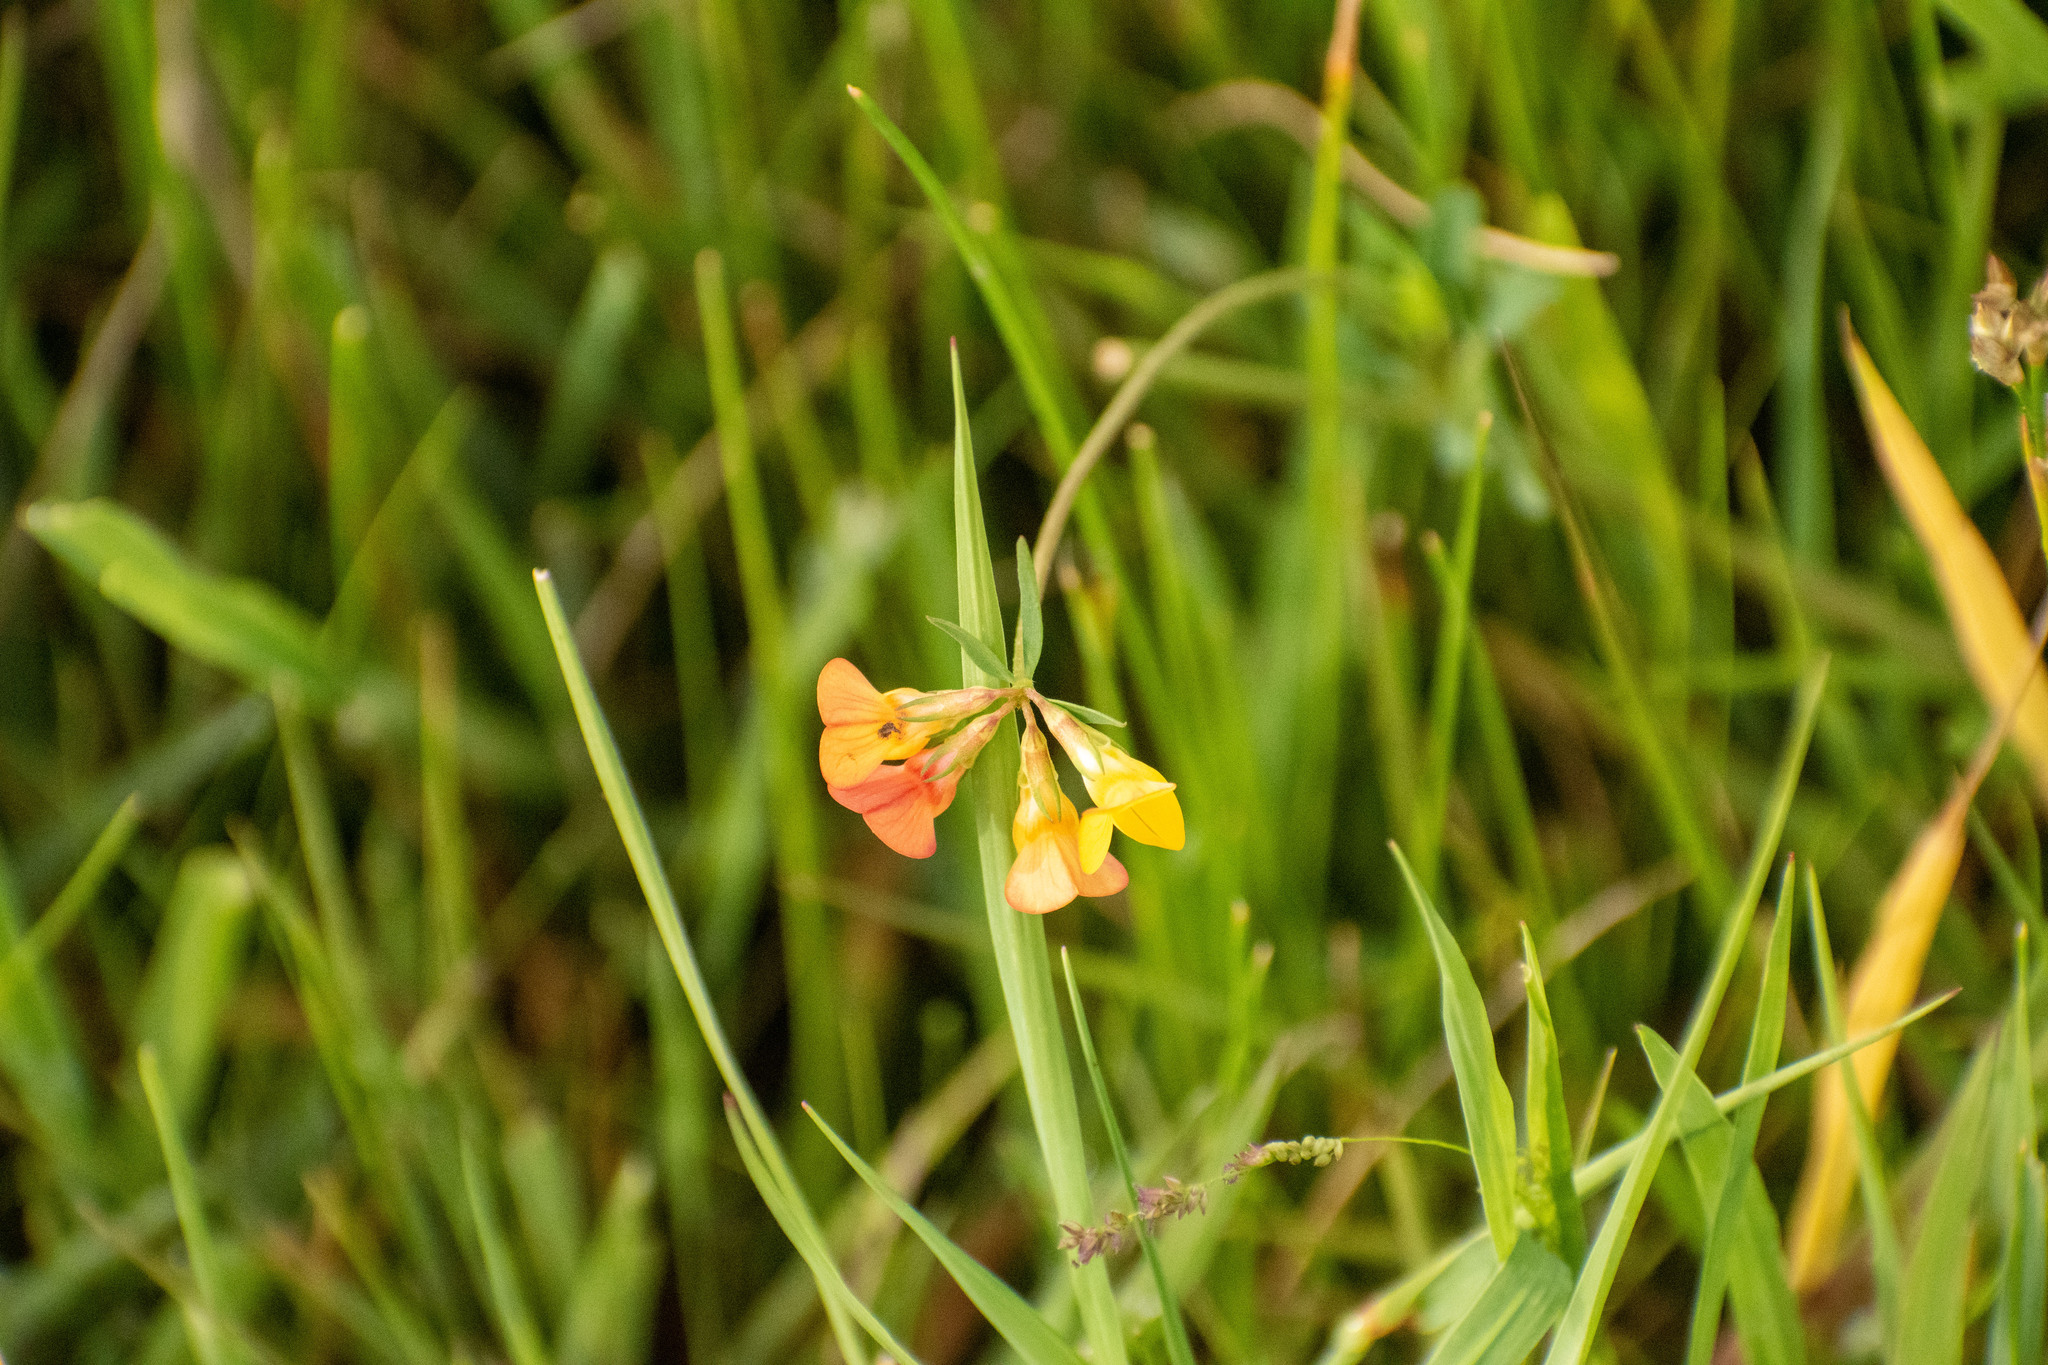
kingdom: Plantae
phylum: Tracheophyta
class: Magnoliopsida
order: Fabales
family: Fabaceae
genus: Lotus
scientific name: Lotus tenuis
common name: Narrow-leaved bird's-foot-trefoil
